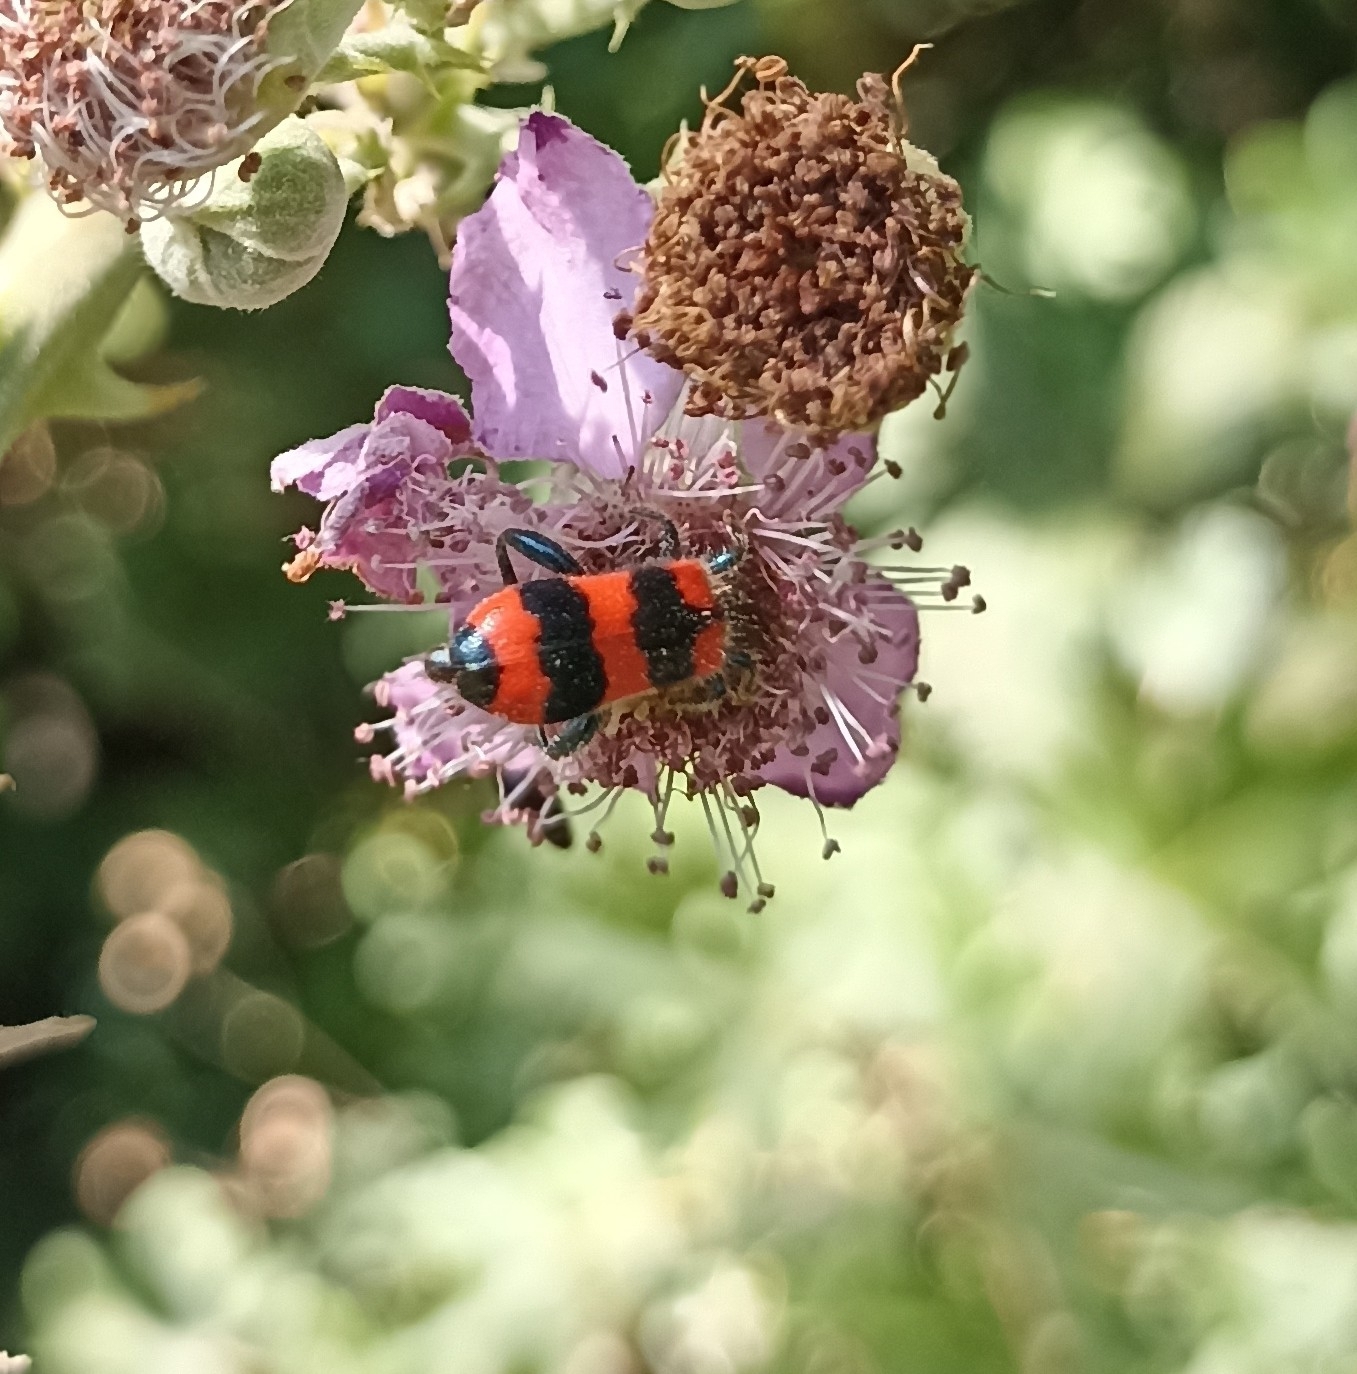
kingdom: Animalia
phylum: Arthropoda
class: Insecta
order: Coleoptera
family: Cleridae
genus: Trichodes
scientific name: Trichodes apiarius
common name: Bee-eating beetle
